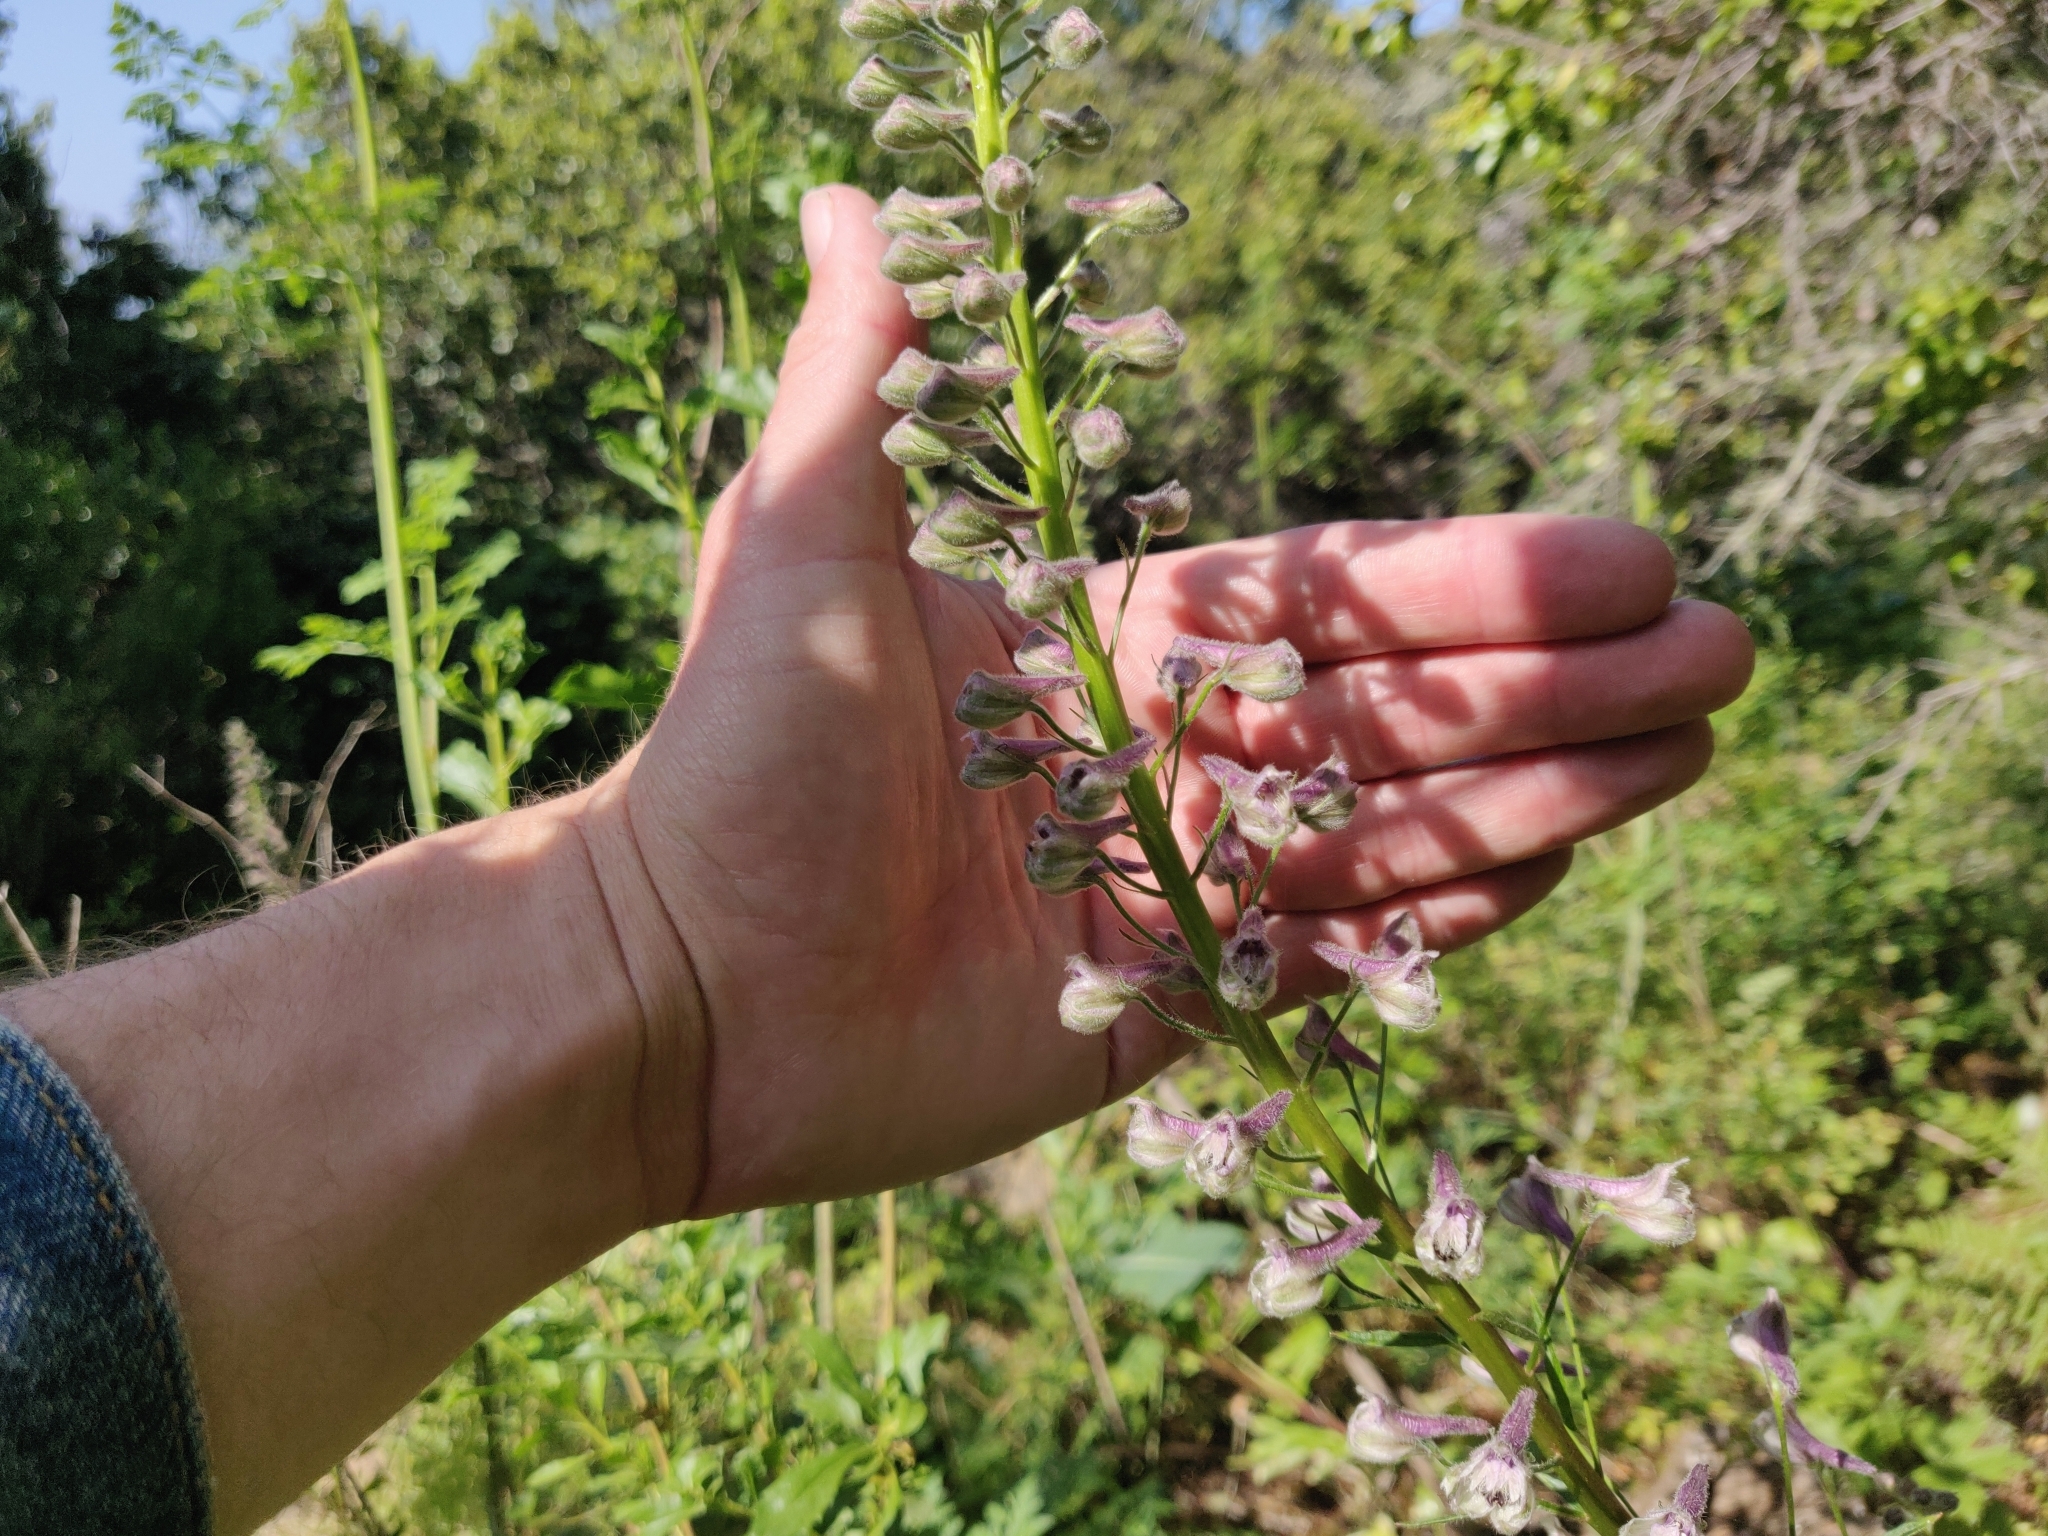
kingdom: Plantae
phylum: Tracheophyta
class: Magnoliopsida
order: Ranunculales
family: Ranunculaceae
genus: Delphinium
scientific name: Delphinium californicum
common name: California larkspur
